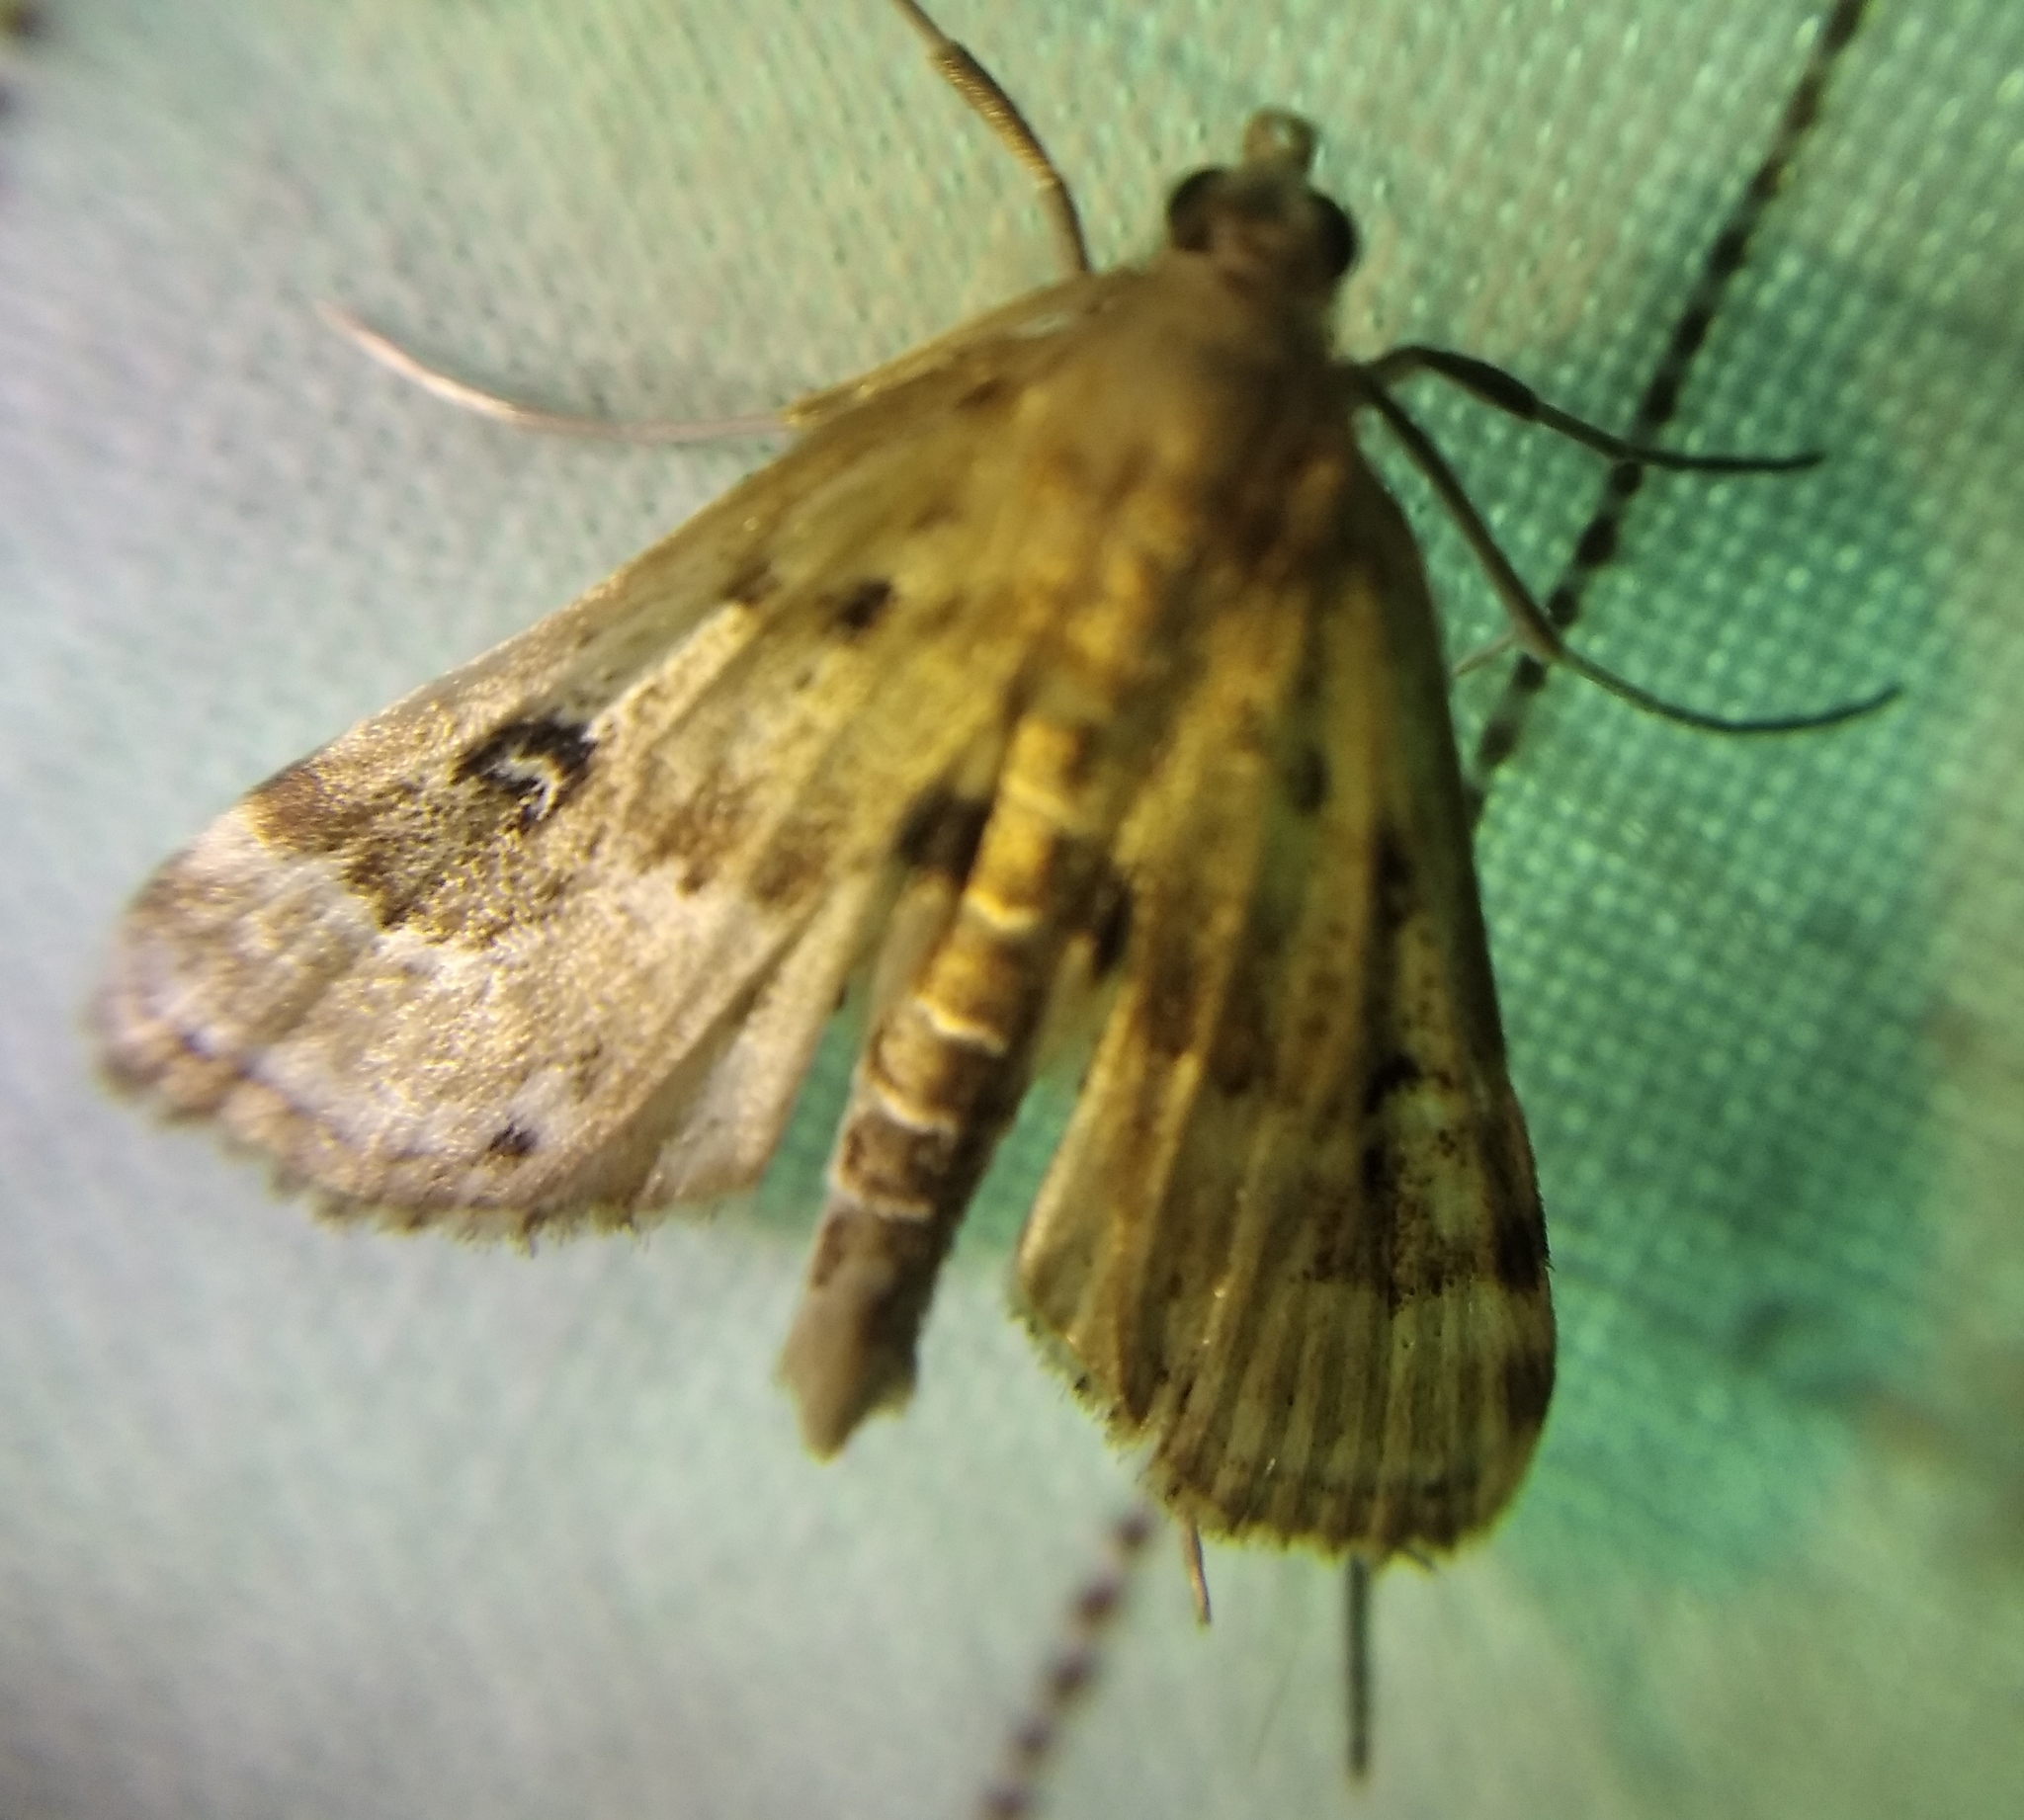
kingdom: Animalia
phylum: Arthropoda
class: Insecta
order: Lepidoptera
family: Crambidae
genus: Parapoynx
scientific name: Parapoynx stratiotata
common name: Ringed china-mark
